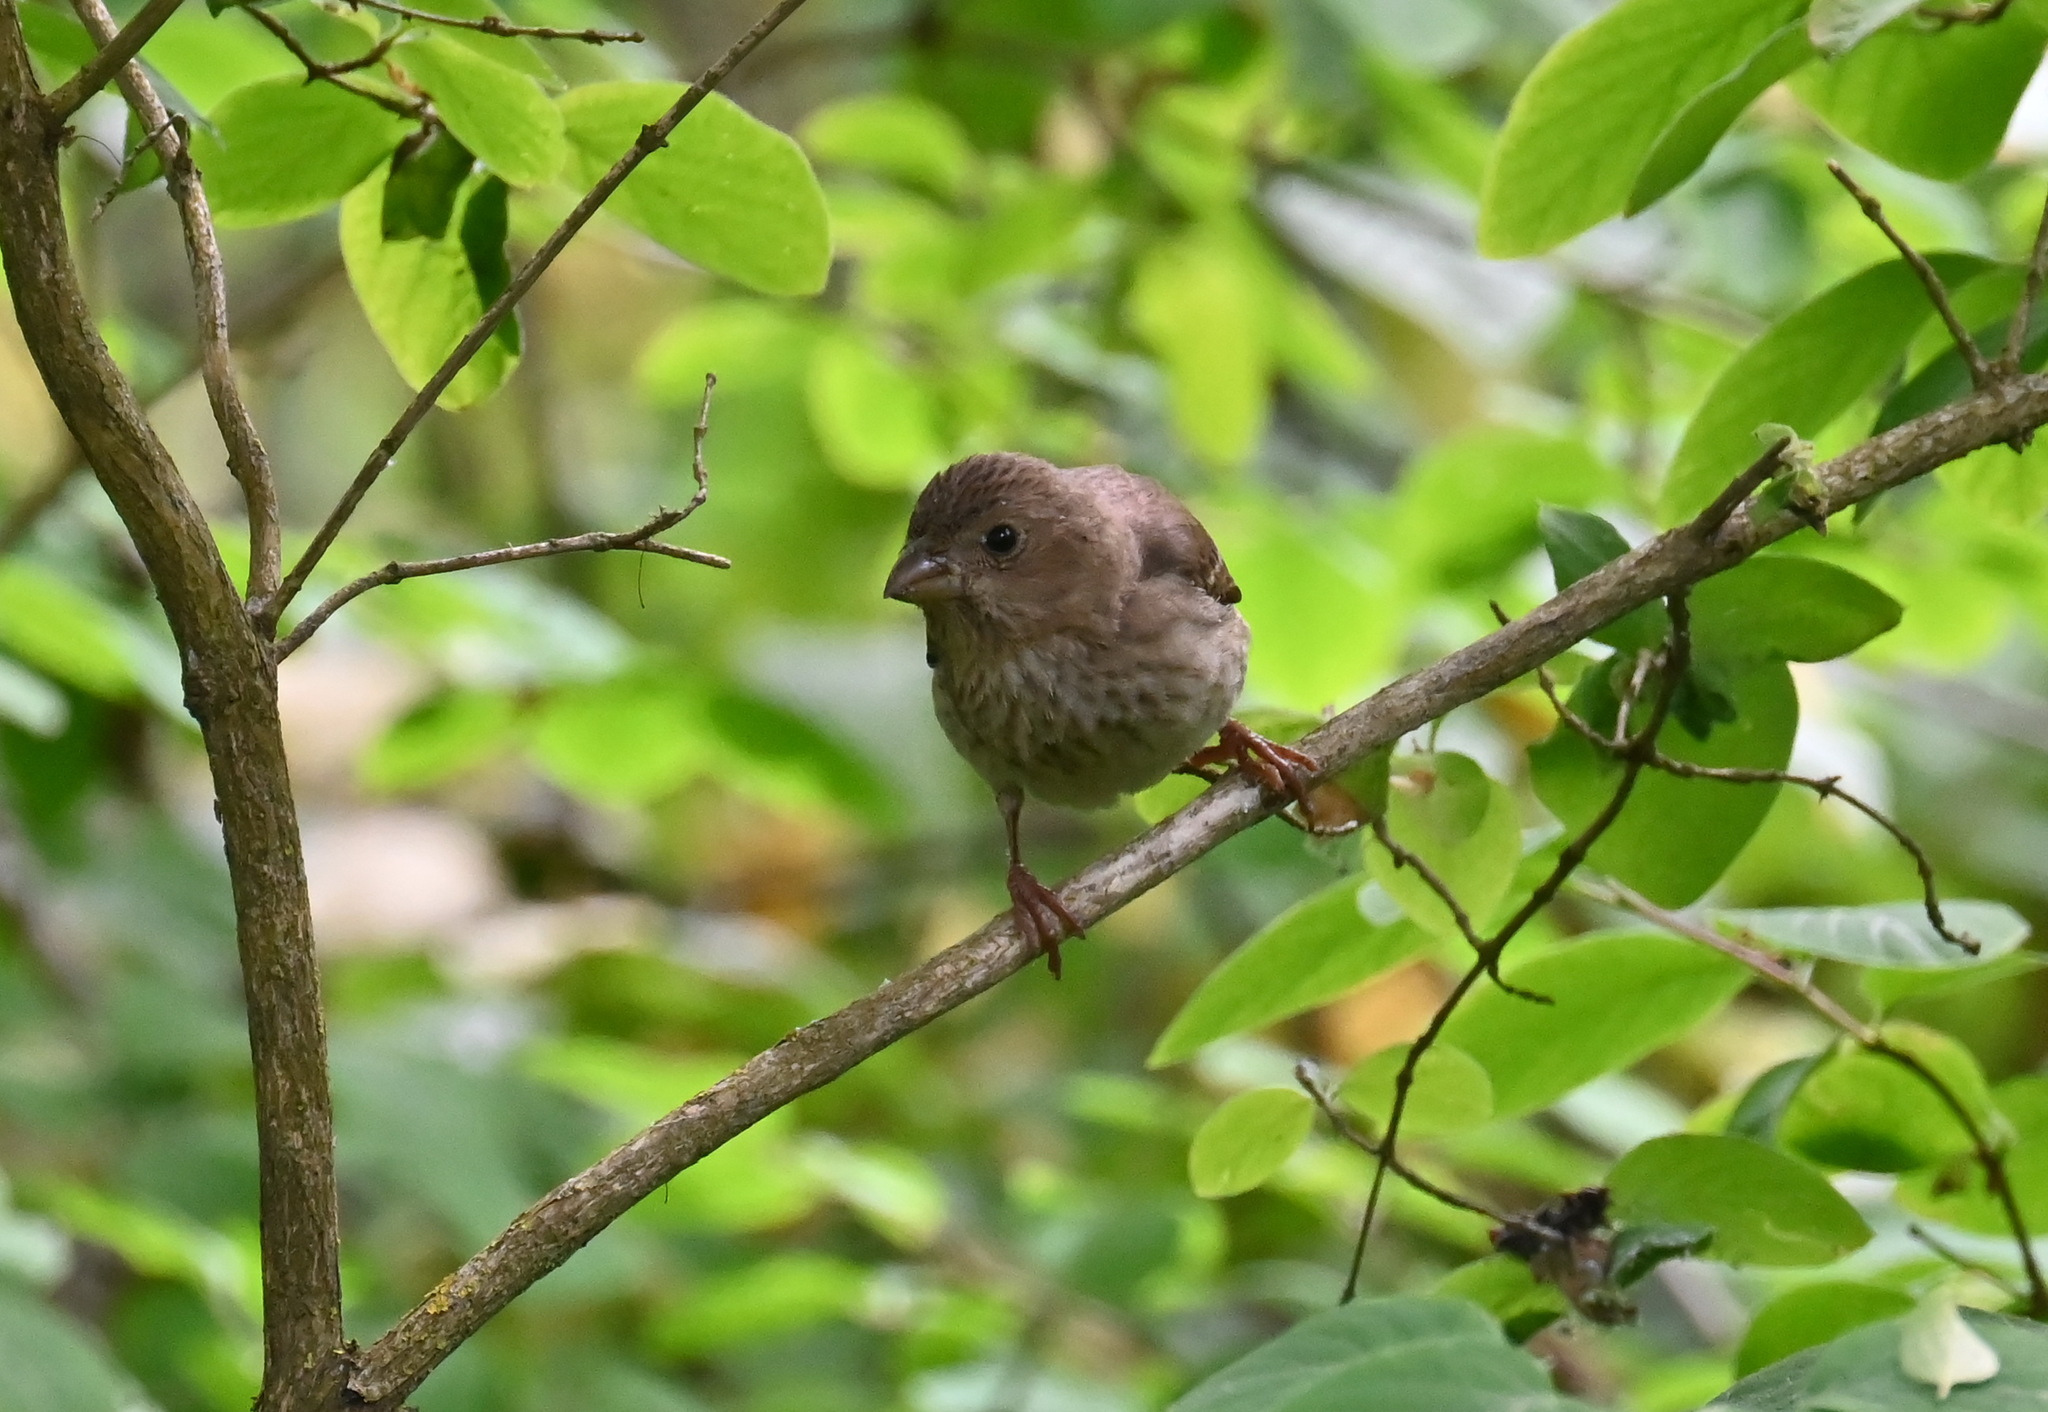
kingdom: Animalia
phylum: Chordata
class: Aves
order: Passeriformes
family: Fringillidae
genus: Carpodacus
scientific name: Carpodacus erythrinus
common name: Common rosefinch
